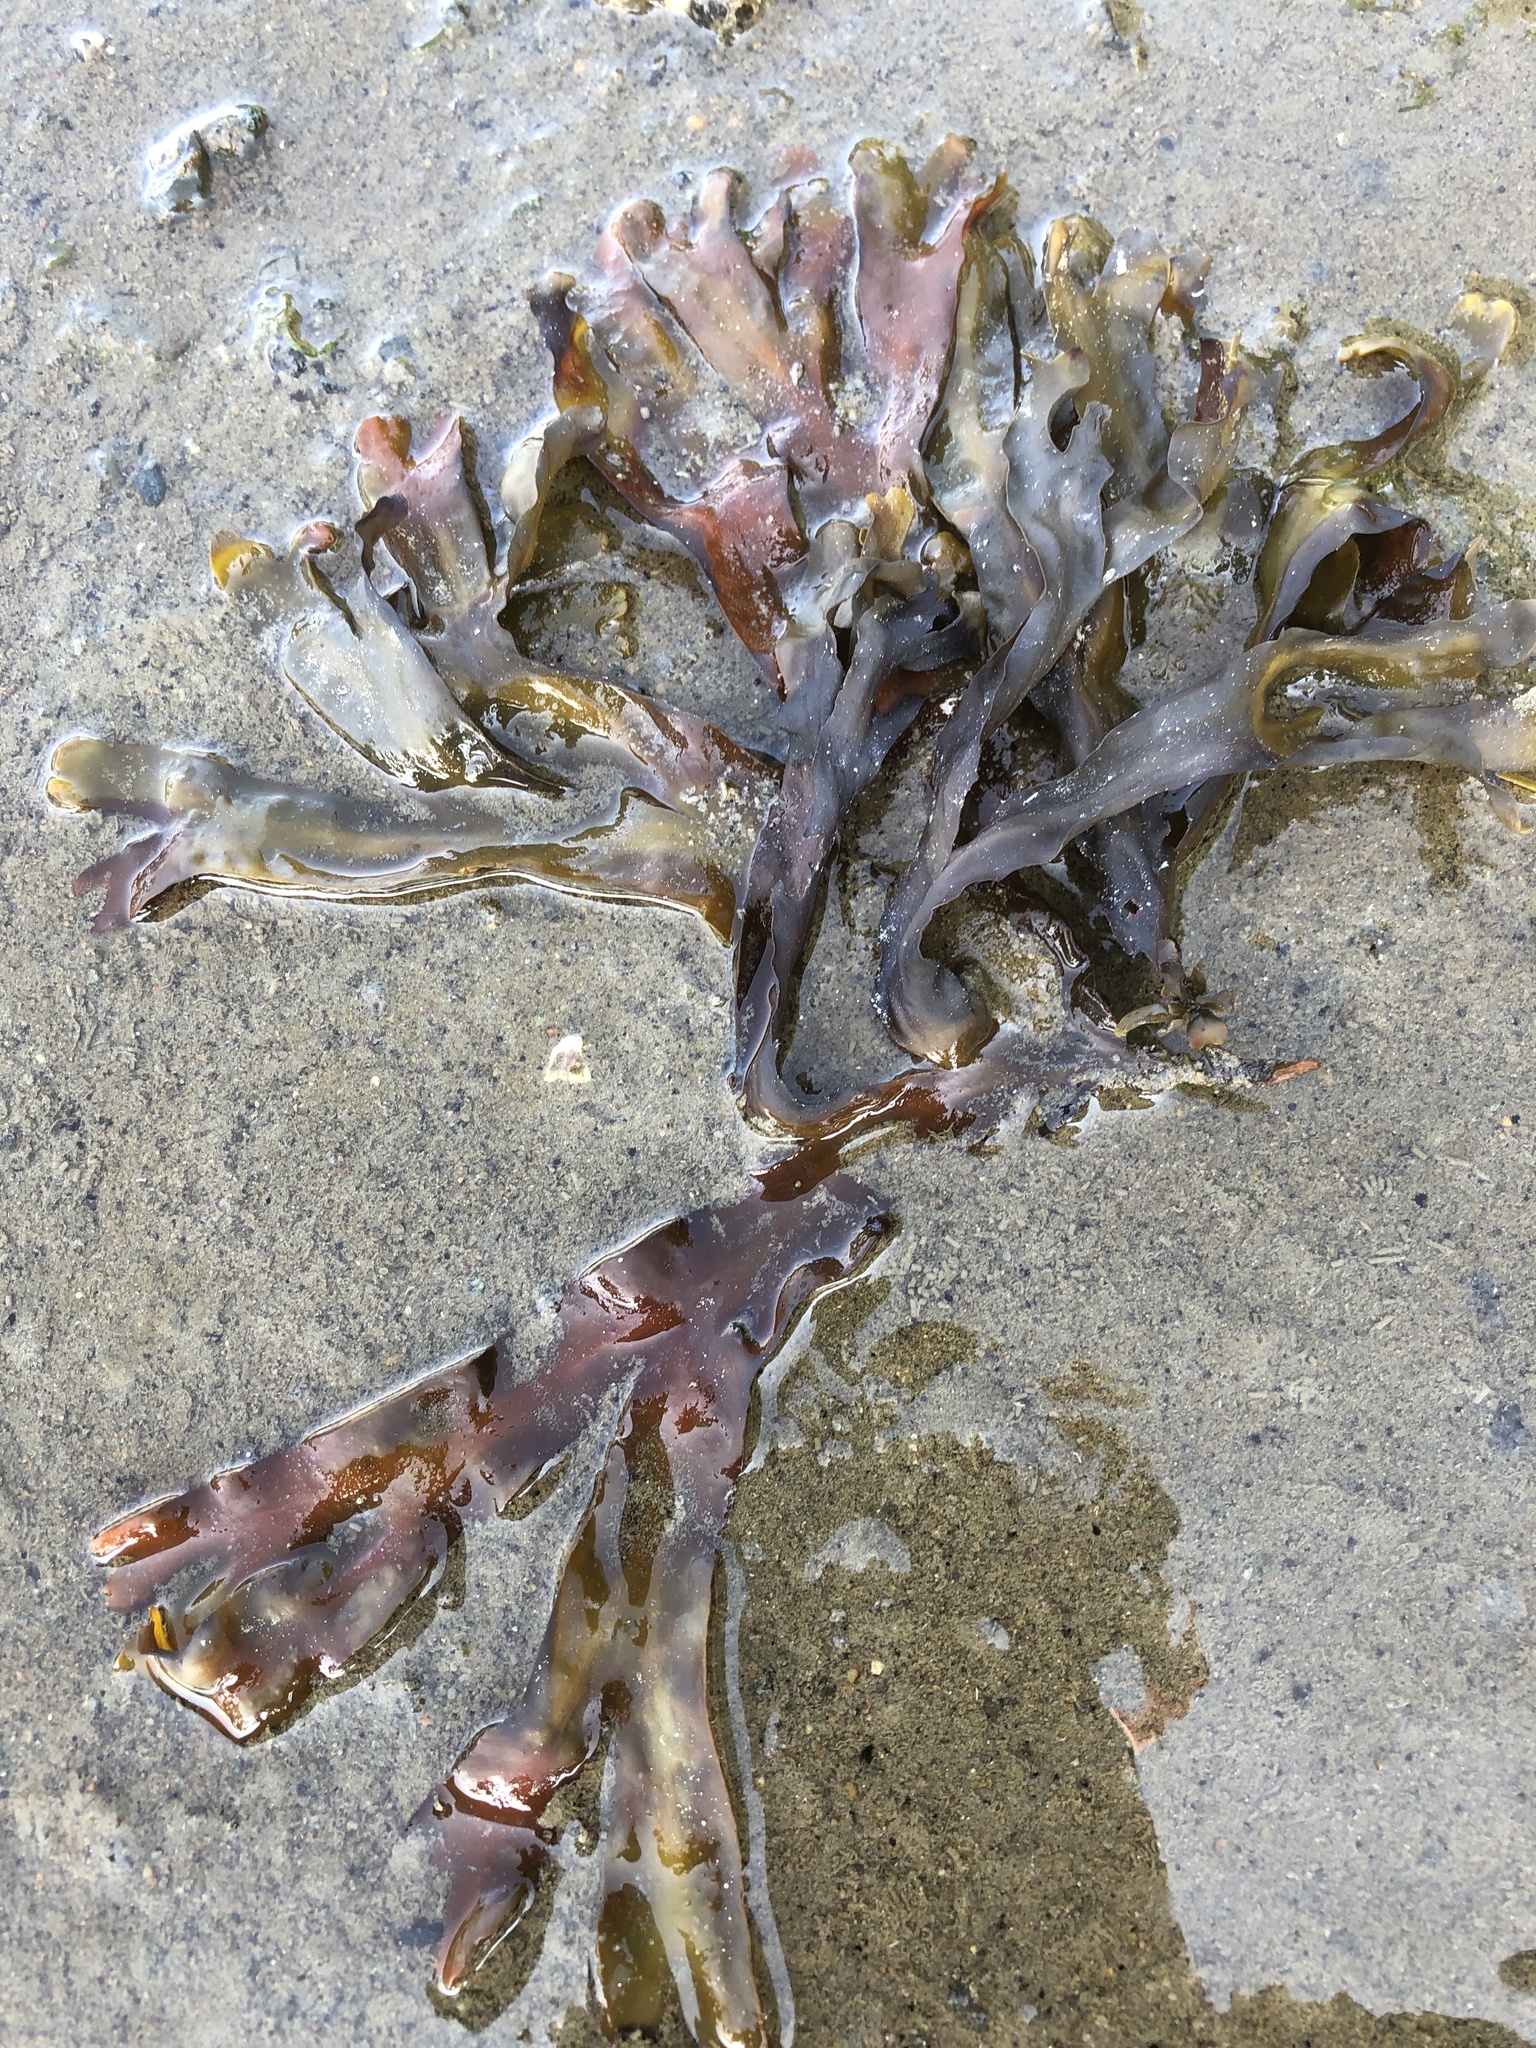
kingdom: Chromista
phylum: Ochrophyta
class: Phaeophyceae
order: Fucales
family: Fucaceae
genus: Fucus
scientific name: Fucus distichus
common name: Rockweed
